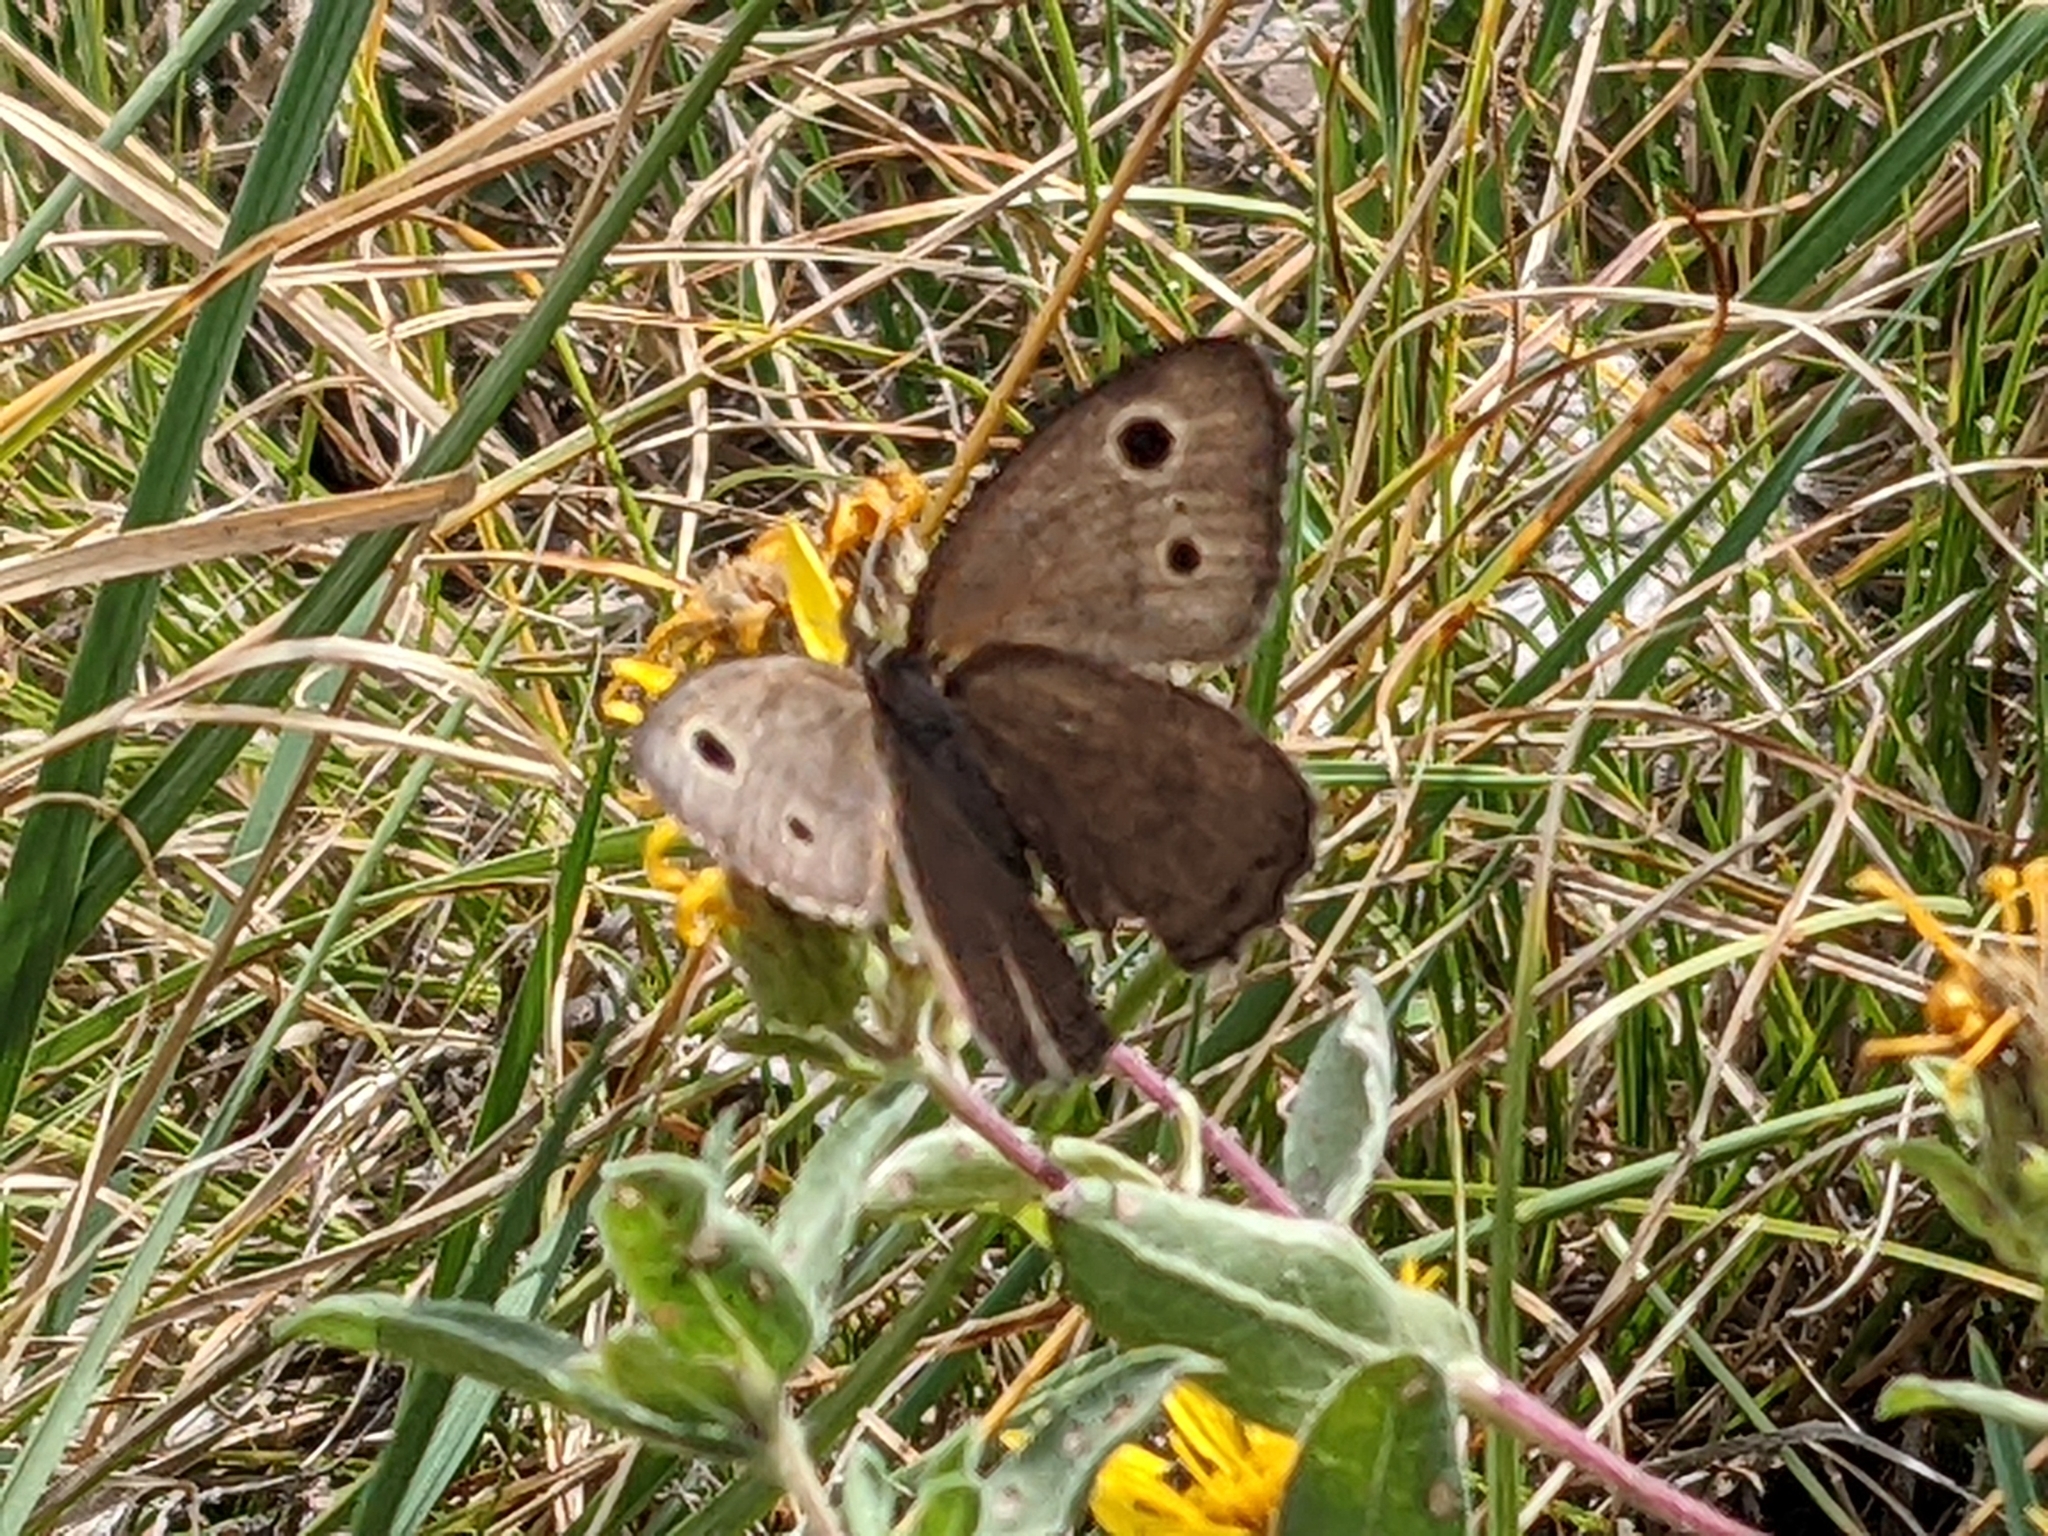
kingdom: Animalia
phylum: Arthropoda
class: Insecta
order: Lepidoptera
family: Nymphalidae
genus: Cercyonis
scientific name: Cercyonis oetus
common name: Small wood-nymph
